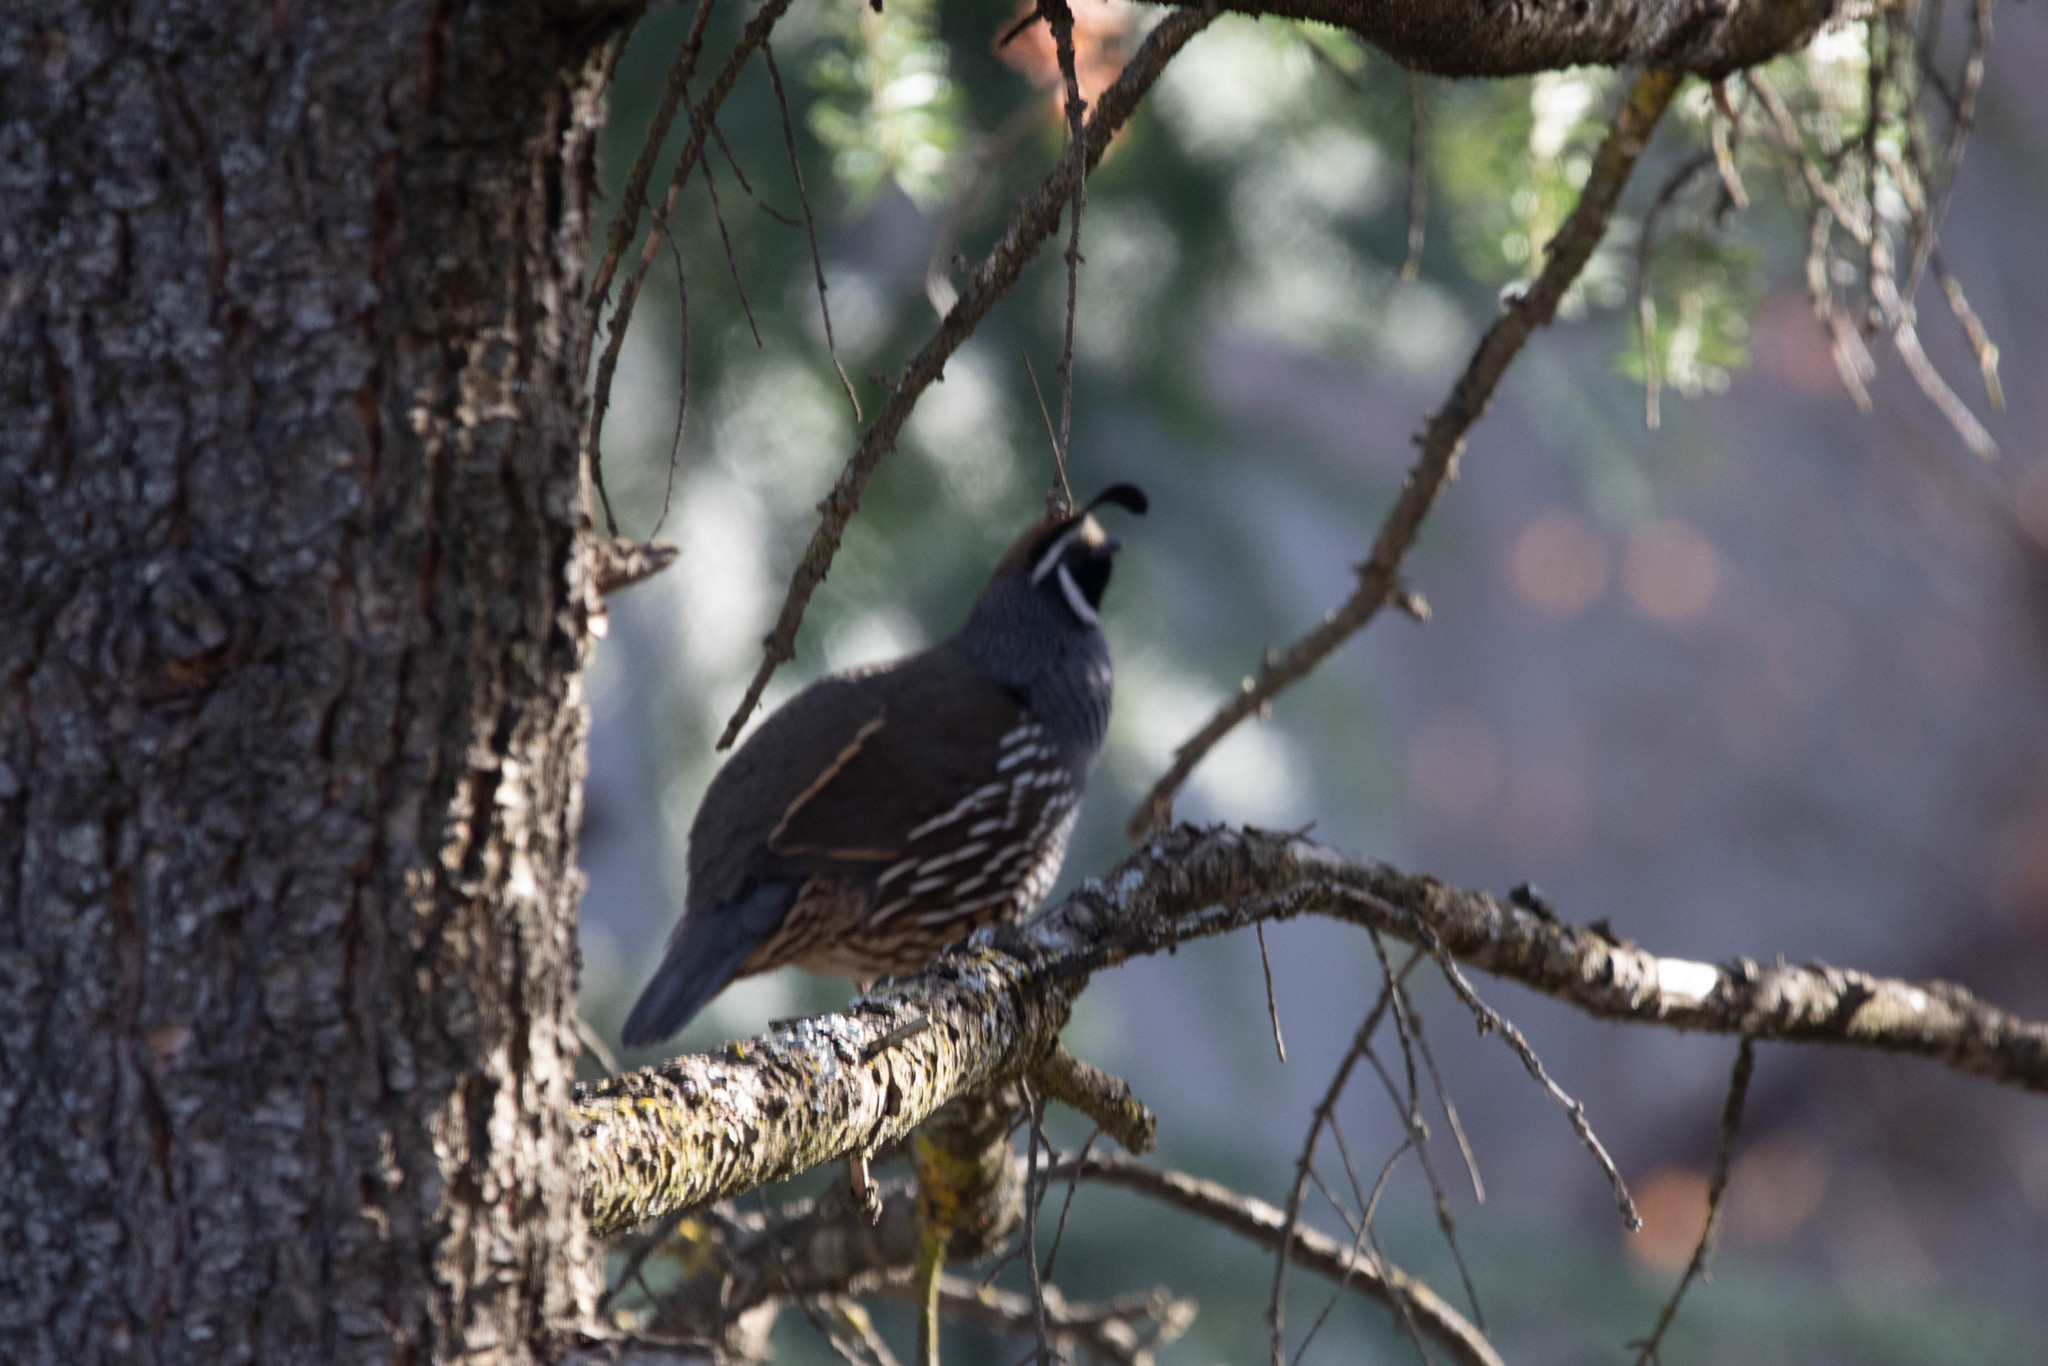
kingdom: Animalia
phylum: Chordata
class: Aves
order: Galliformes
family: Odontophoridae
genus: Callipepla
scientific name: Callipepla californica
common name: California quail
